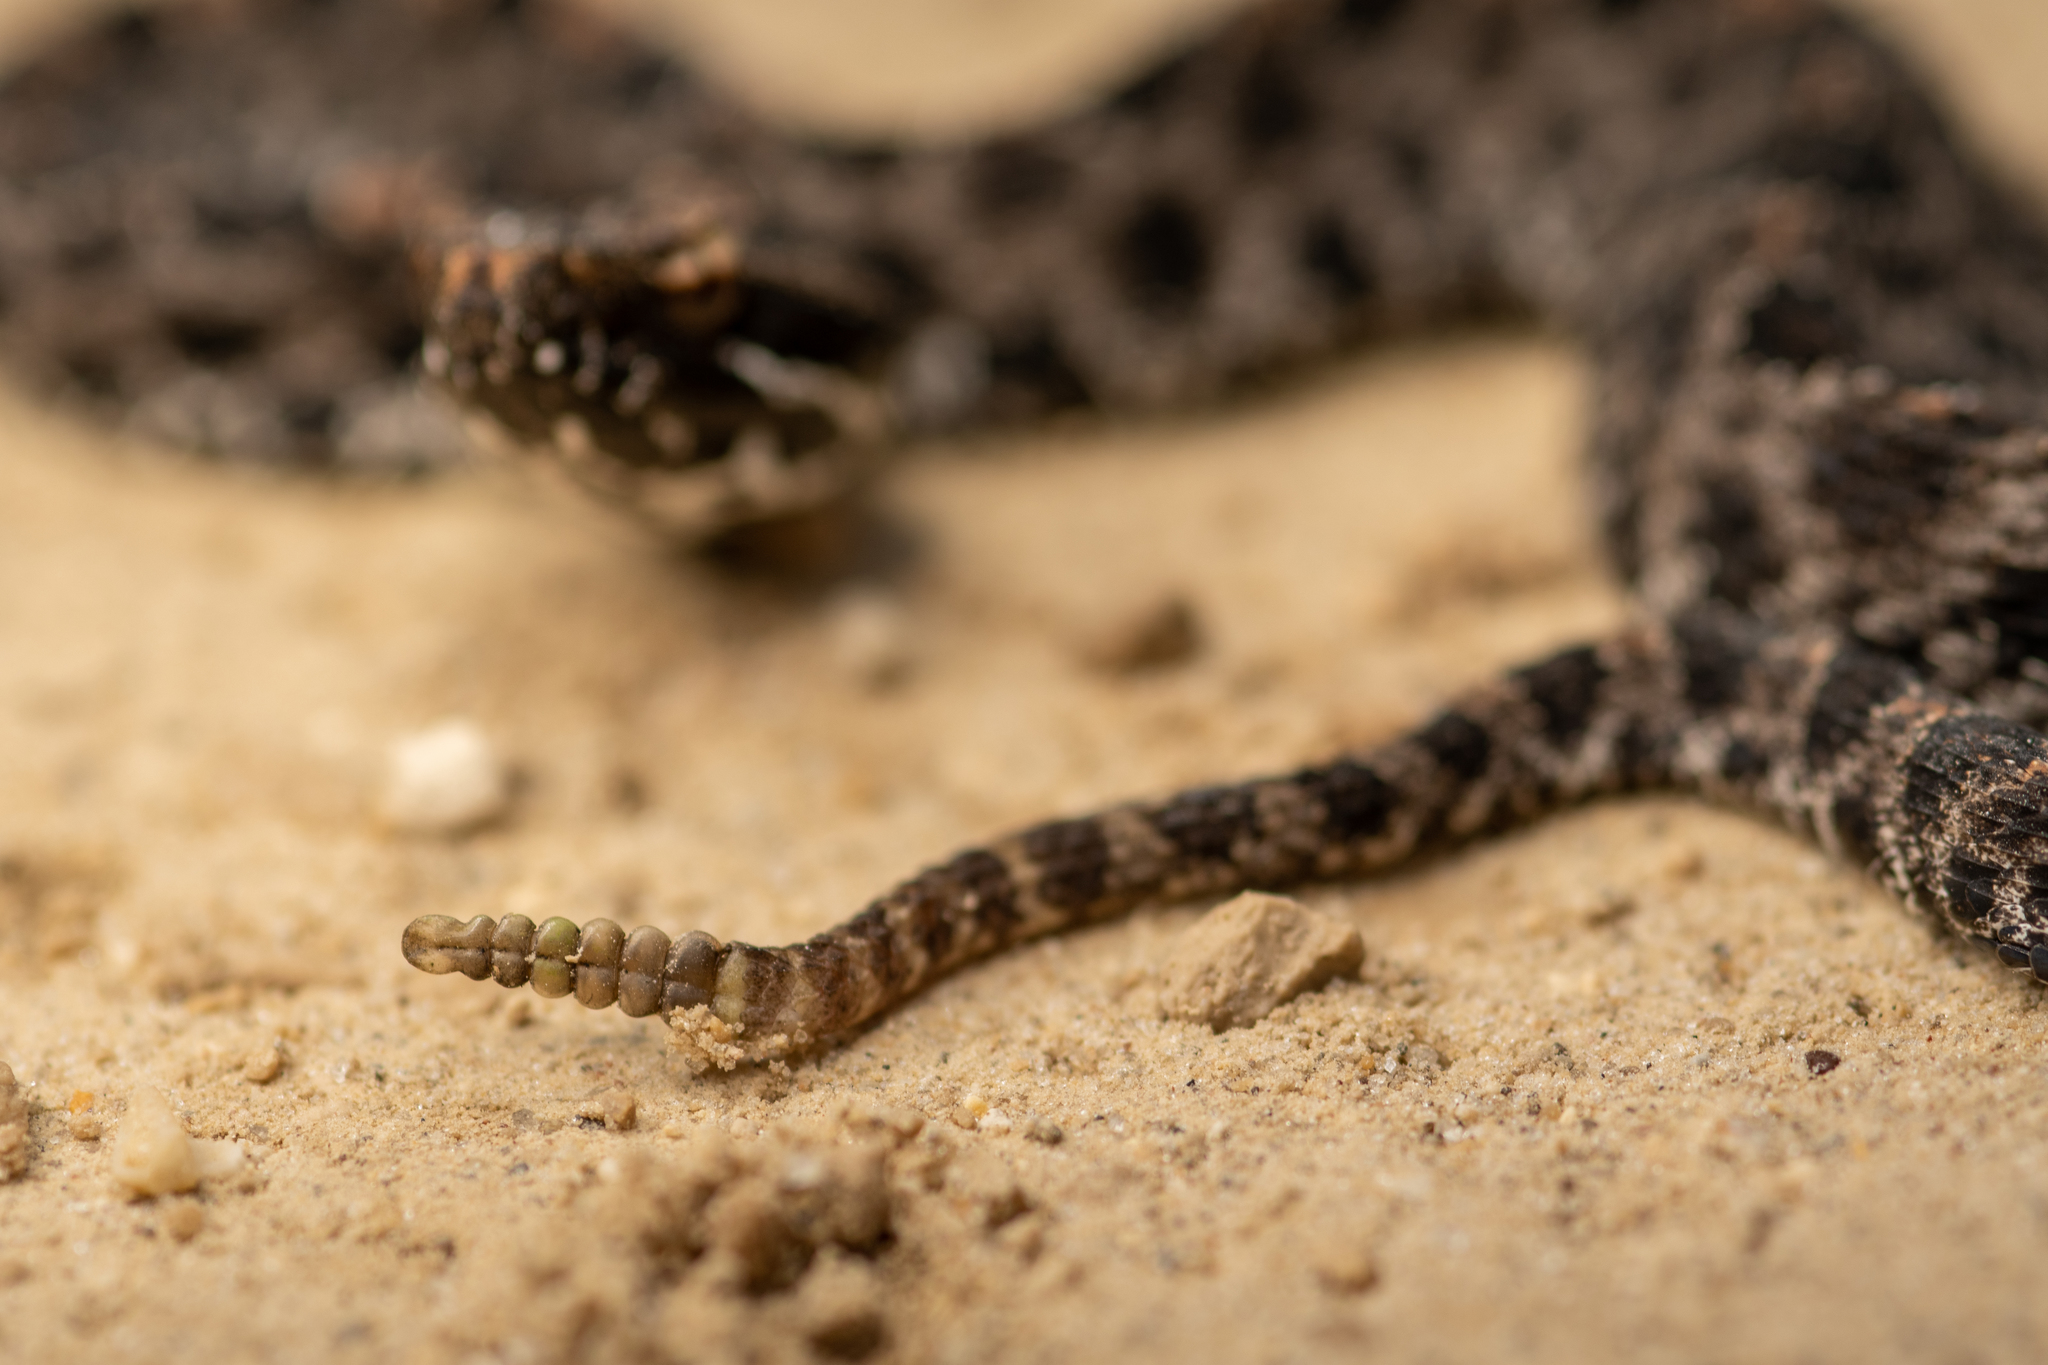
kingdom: Animalia
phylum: Chordata
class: Squamata
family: Viperidae
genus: Sistrurus
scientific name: Sistrurus miliarius
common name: Pygmy rattlesnake
